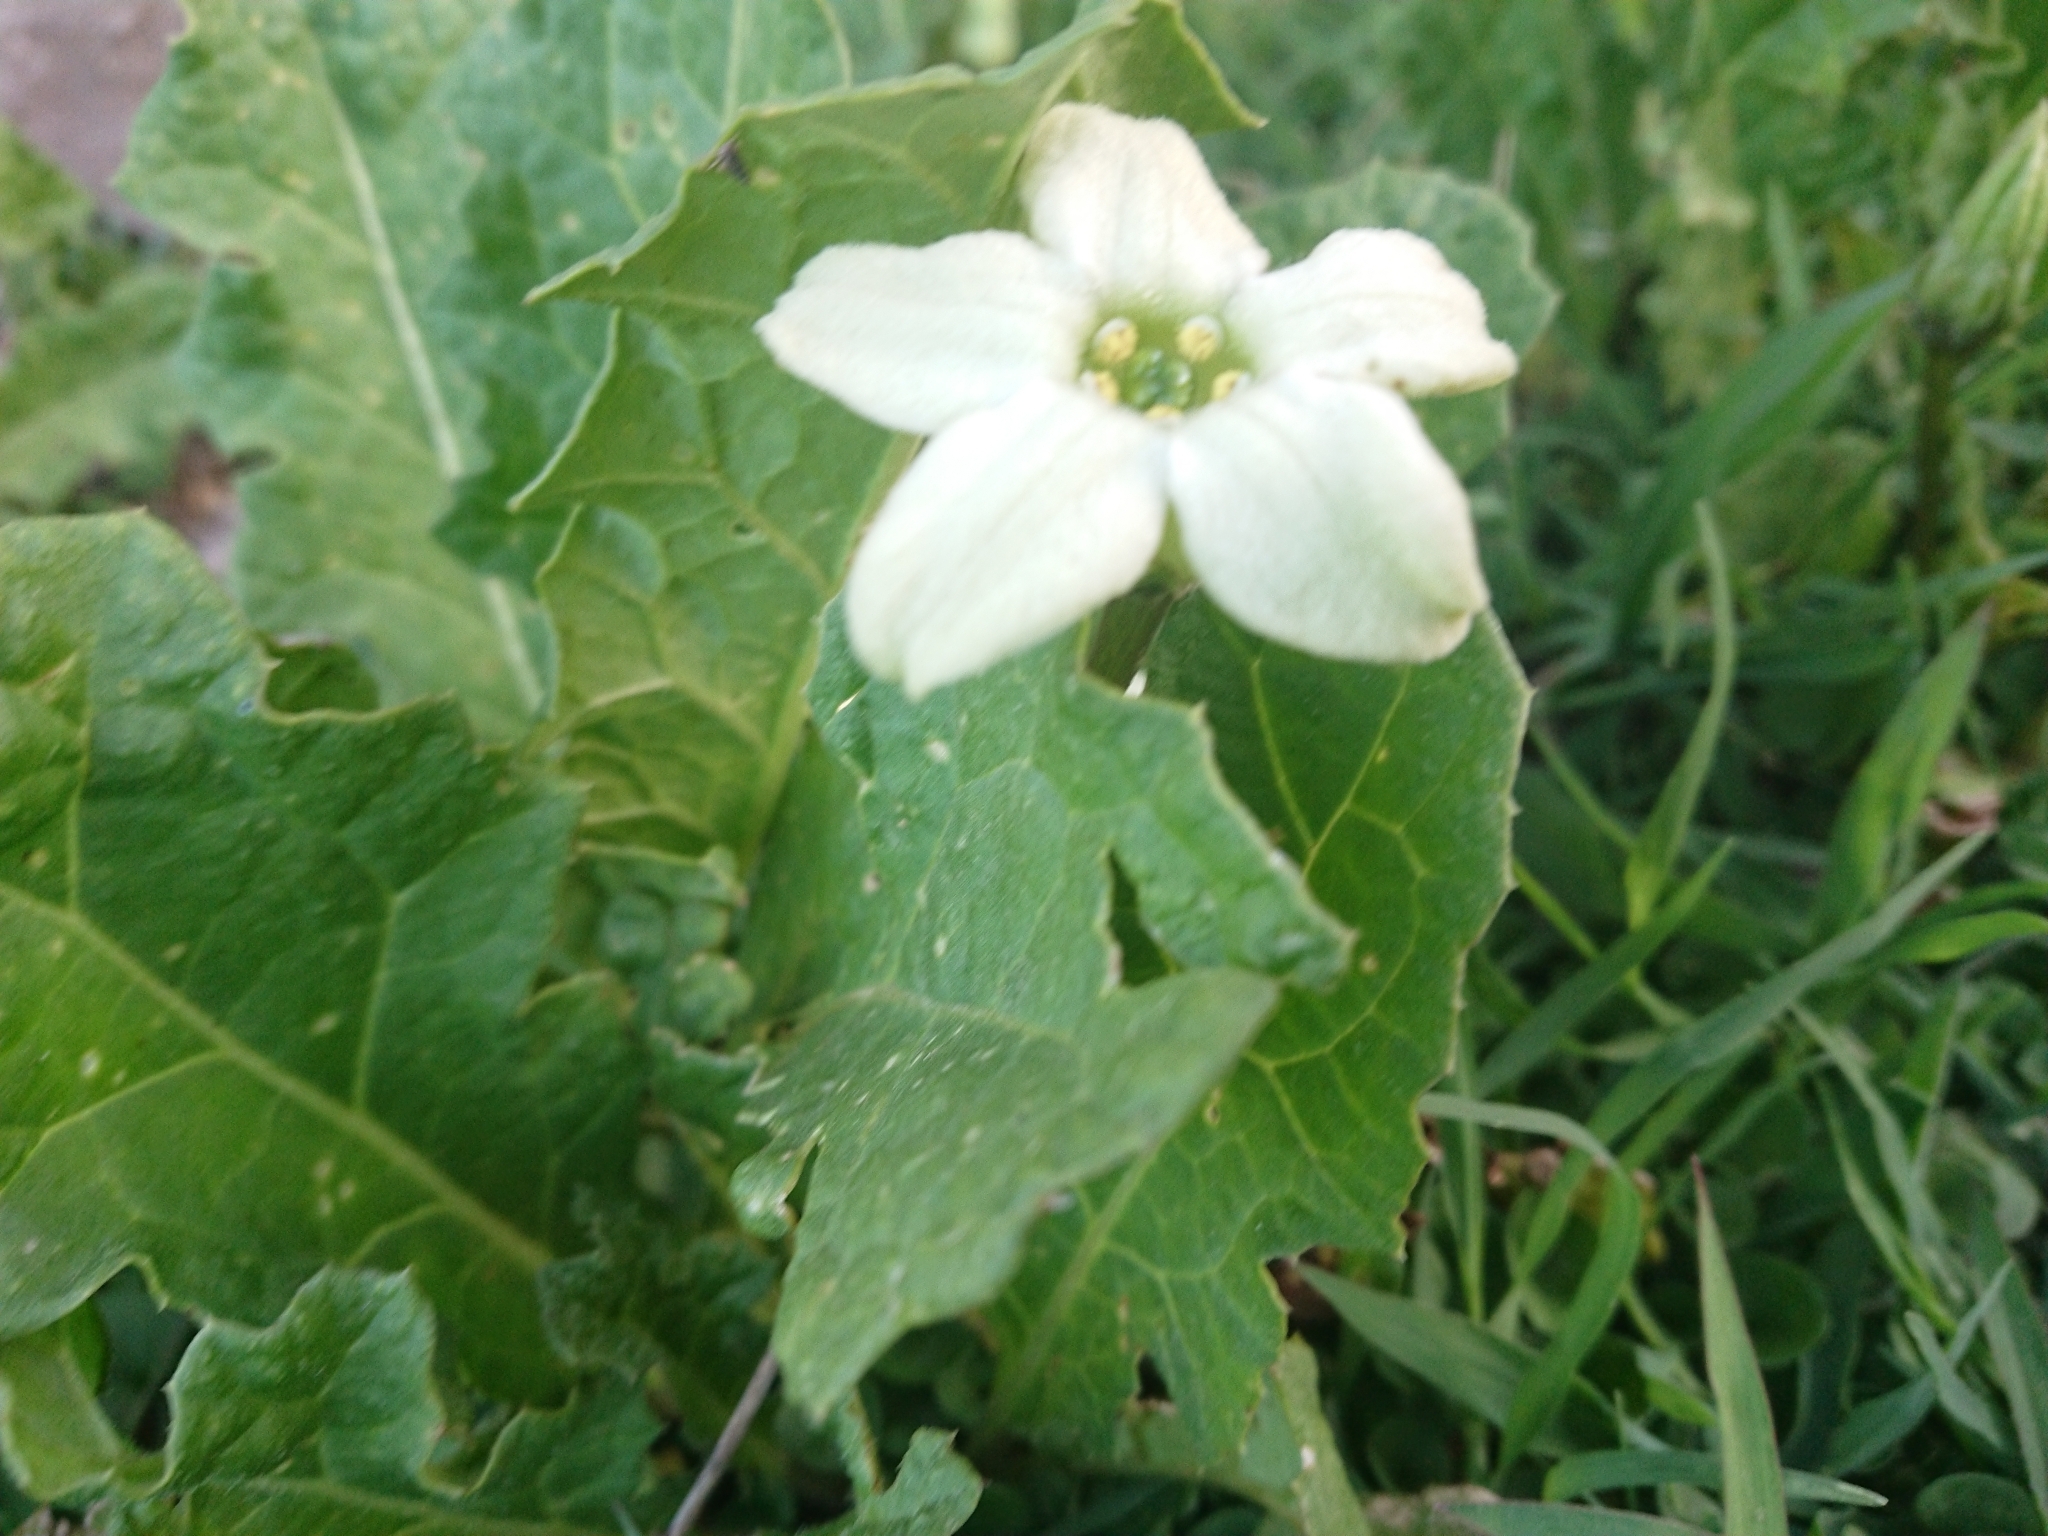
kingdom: Plantae
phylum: Tracheophyta
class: Magnoliopsida
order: Solanales
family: Solanaceae
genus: Jaborosa
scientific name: Jaborosa runcinata
